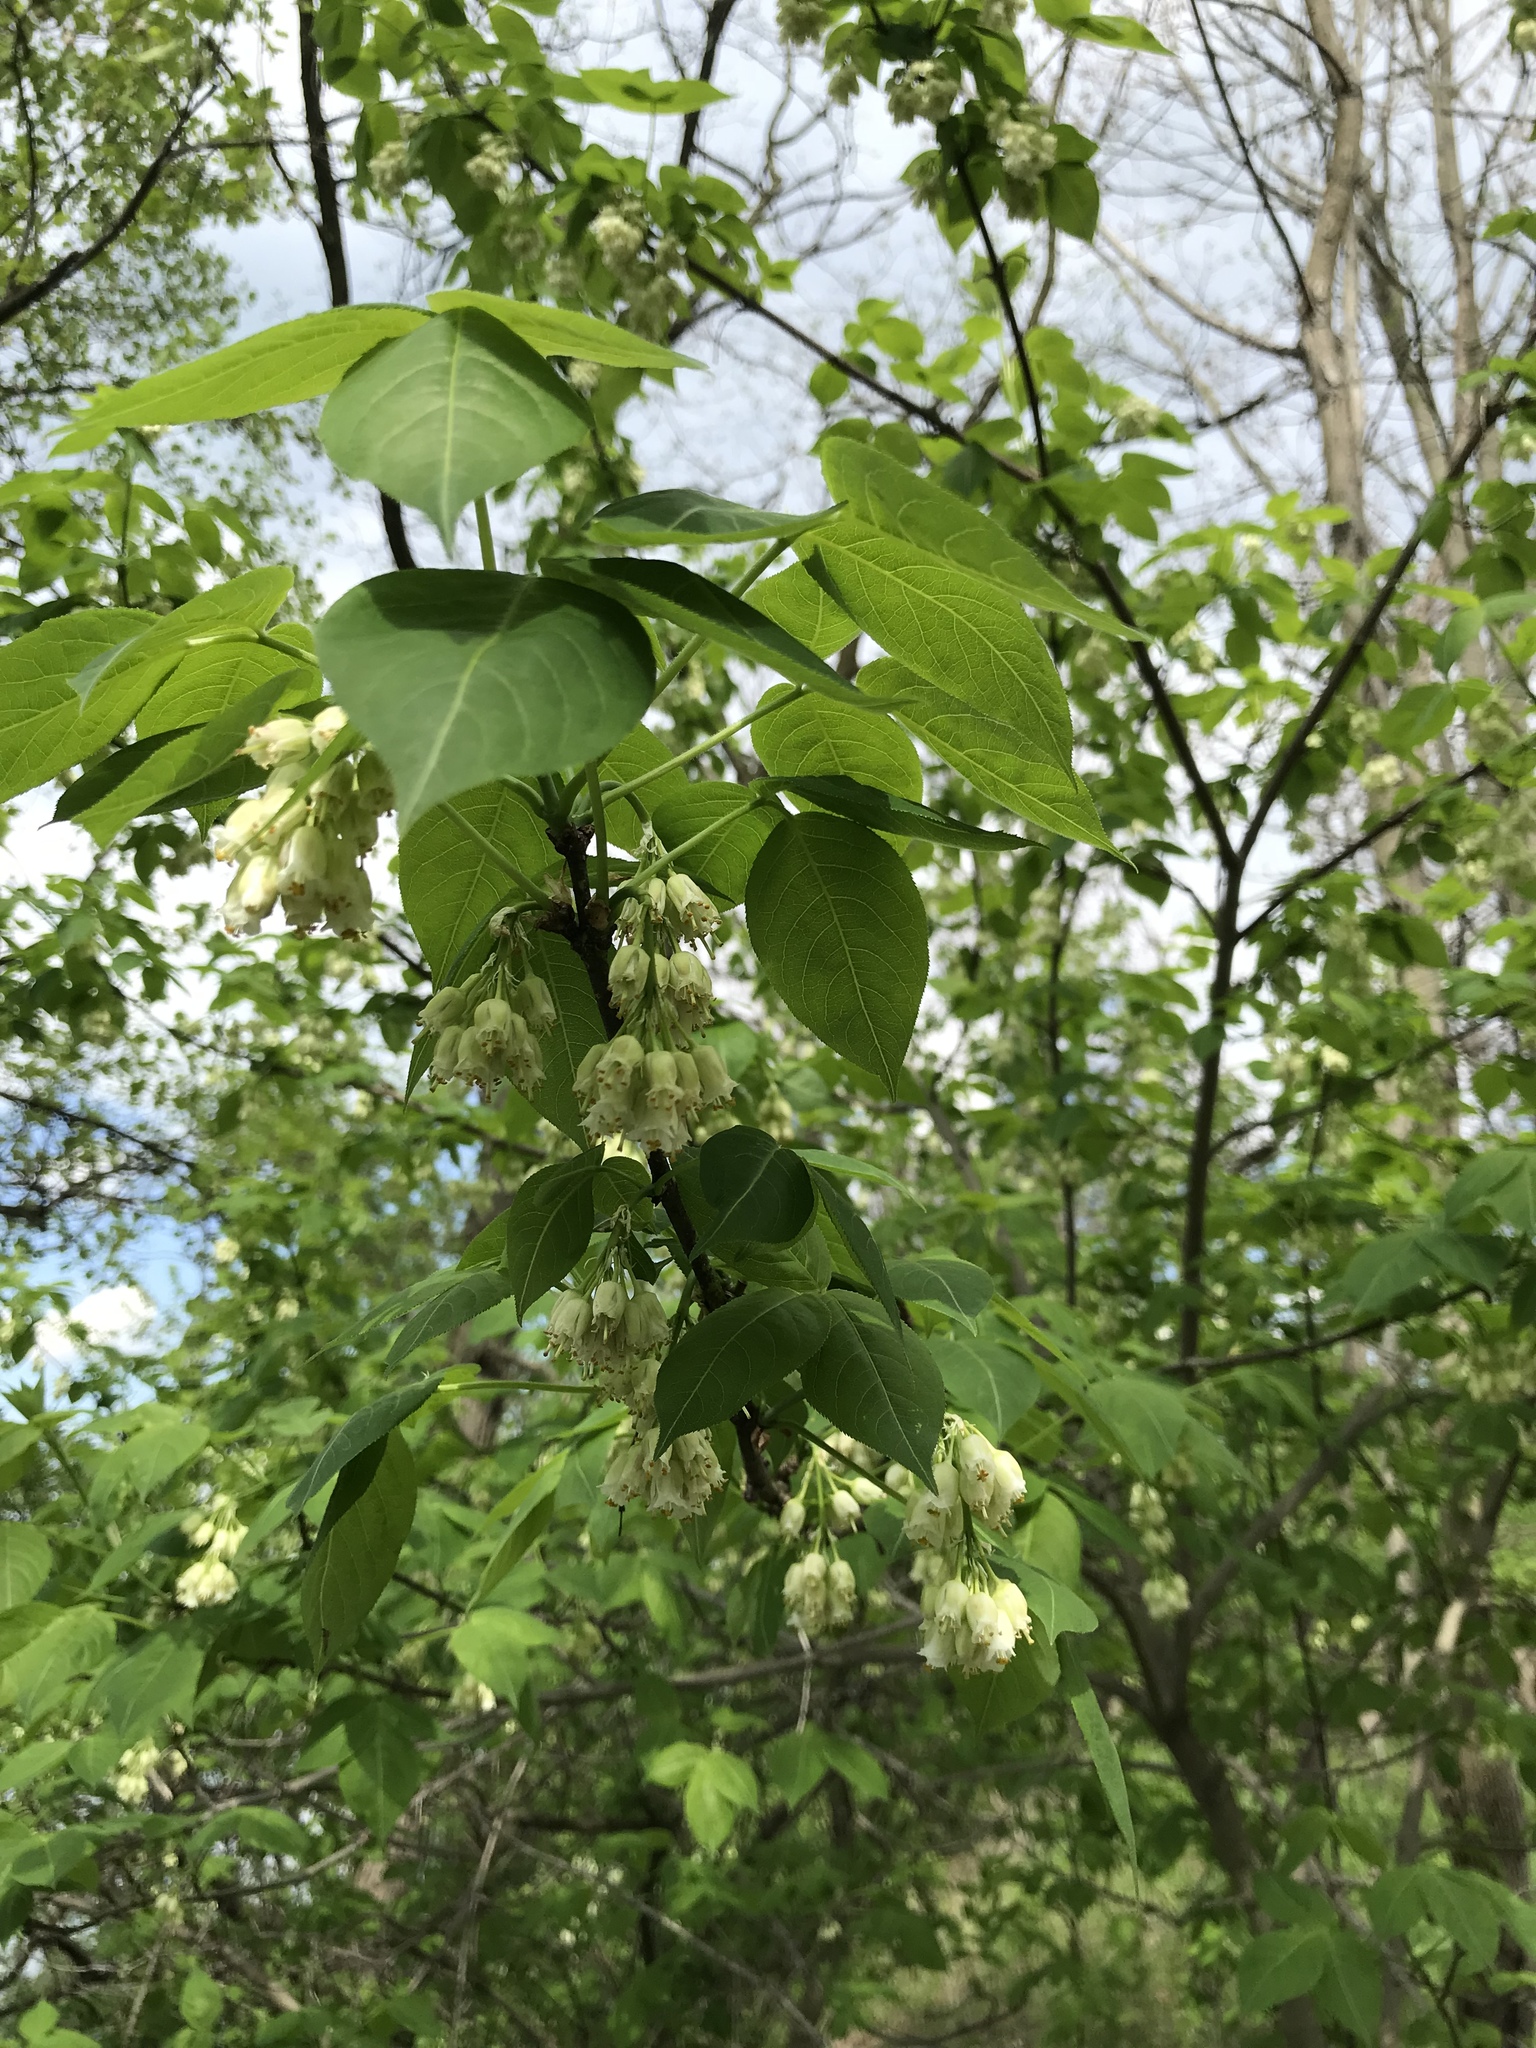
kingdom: Plantae
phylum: Tracheophyta
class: Magnoliopsida
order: Crossosomatales
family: Staphyleaceae
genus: Staphylea
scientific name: Staphylea trifolia
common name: American bladdernut
